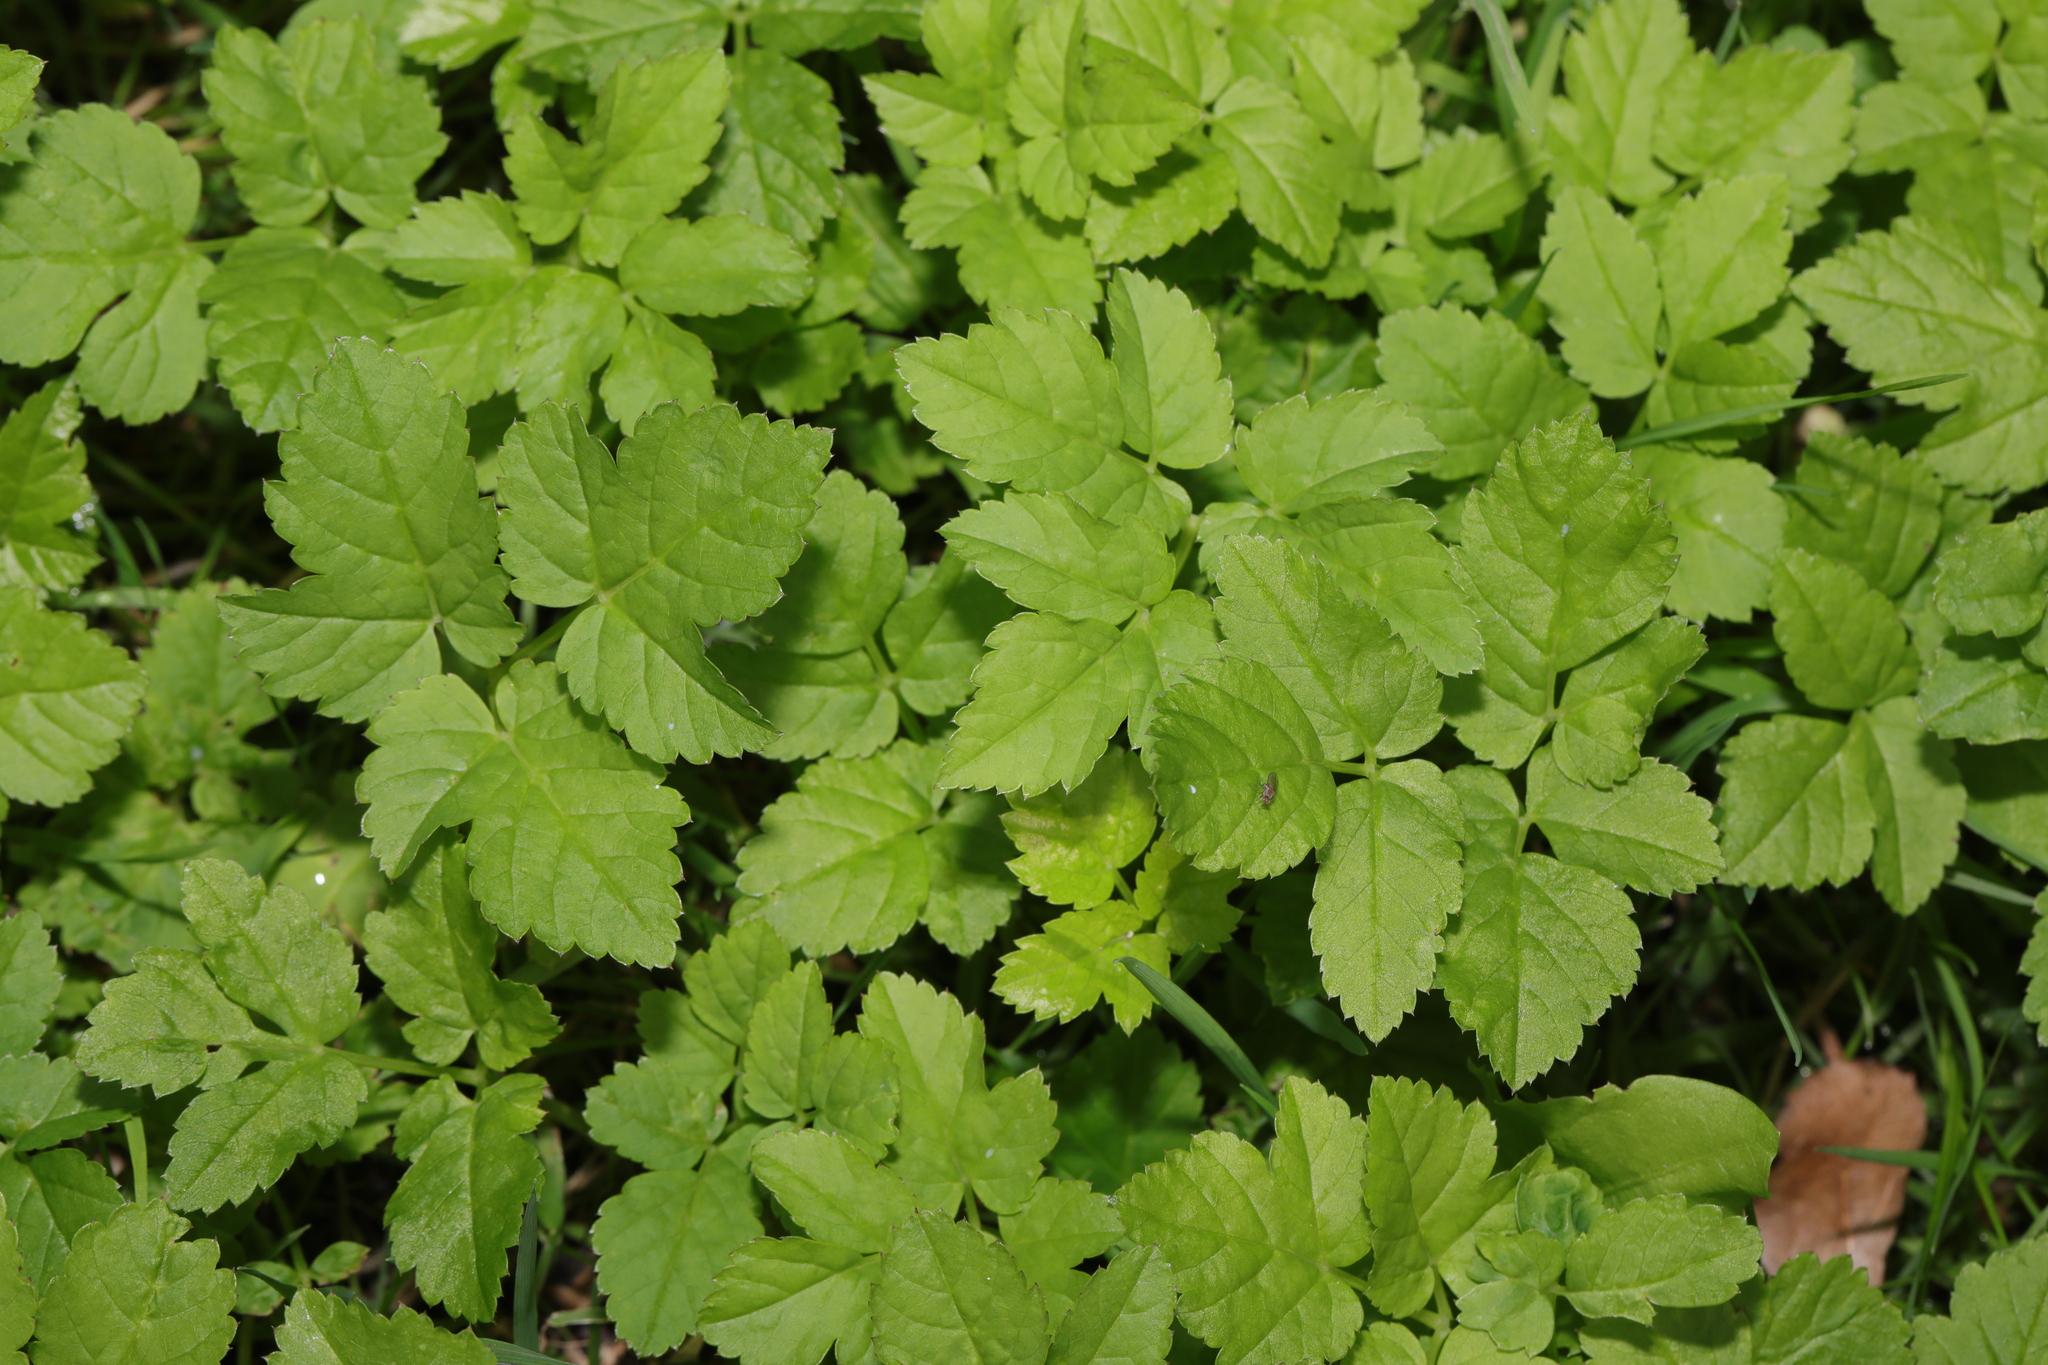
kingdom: Plantae
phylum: Tracheophyta
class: Magnoliopsida
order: Apiales
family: Apiaceae
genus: Aegopodium
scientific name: Aegopodium podagraria
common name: Ground-elder
